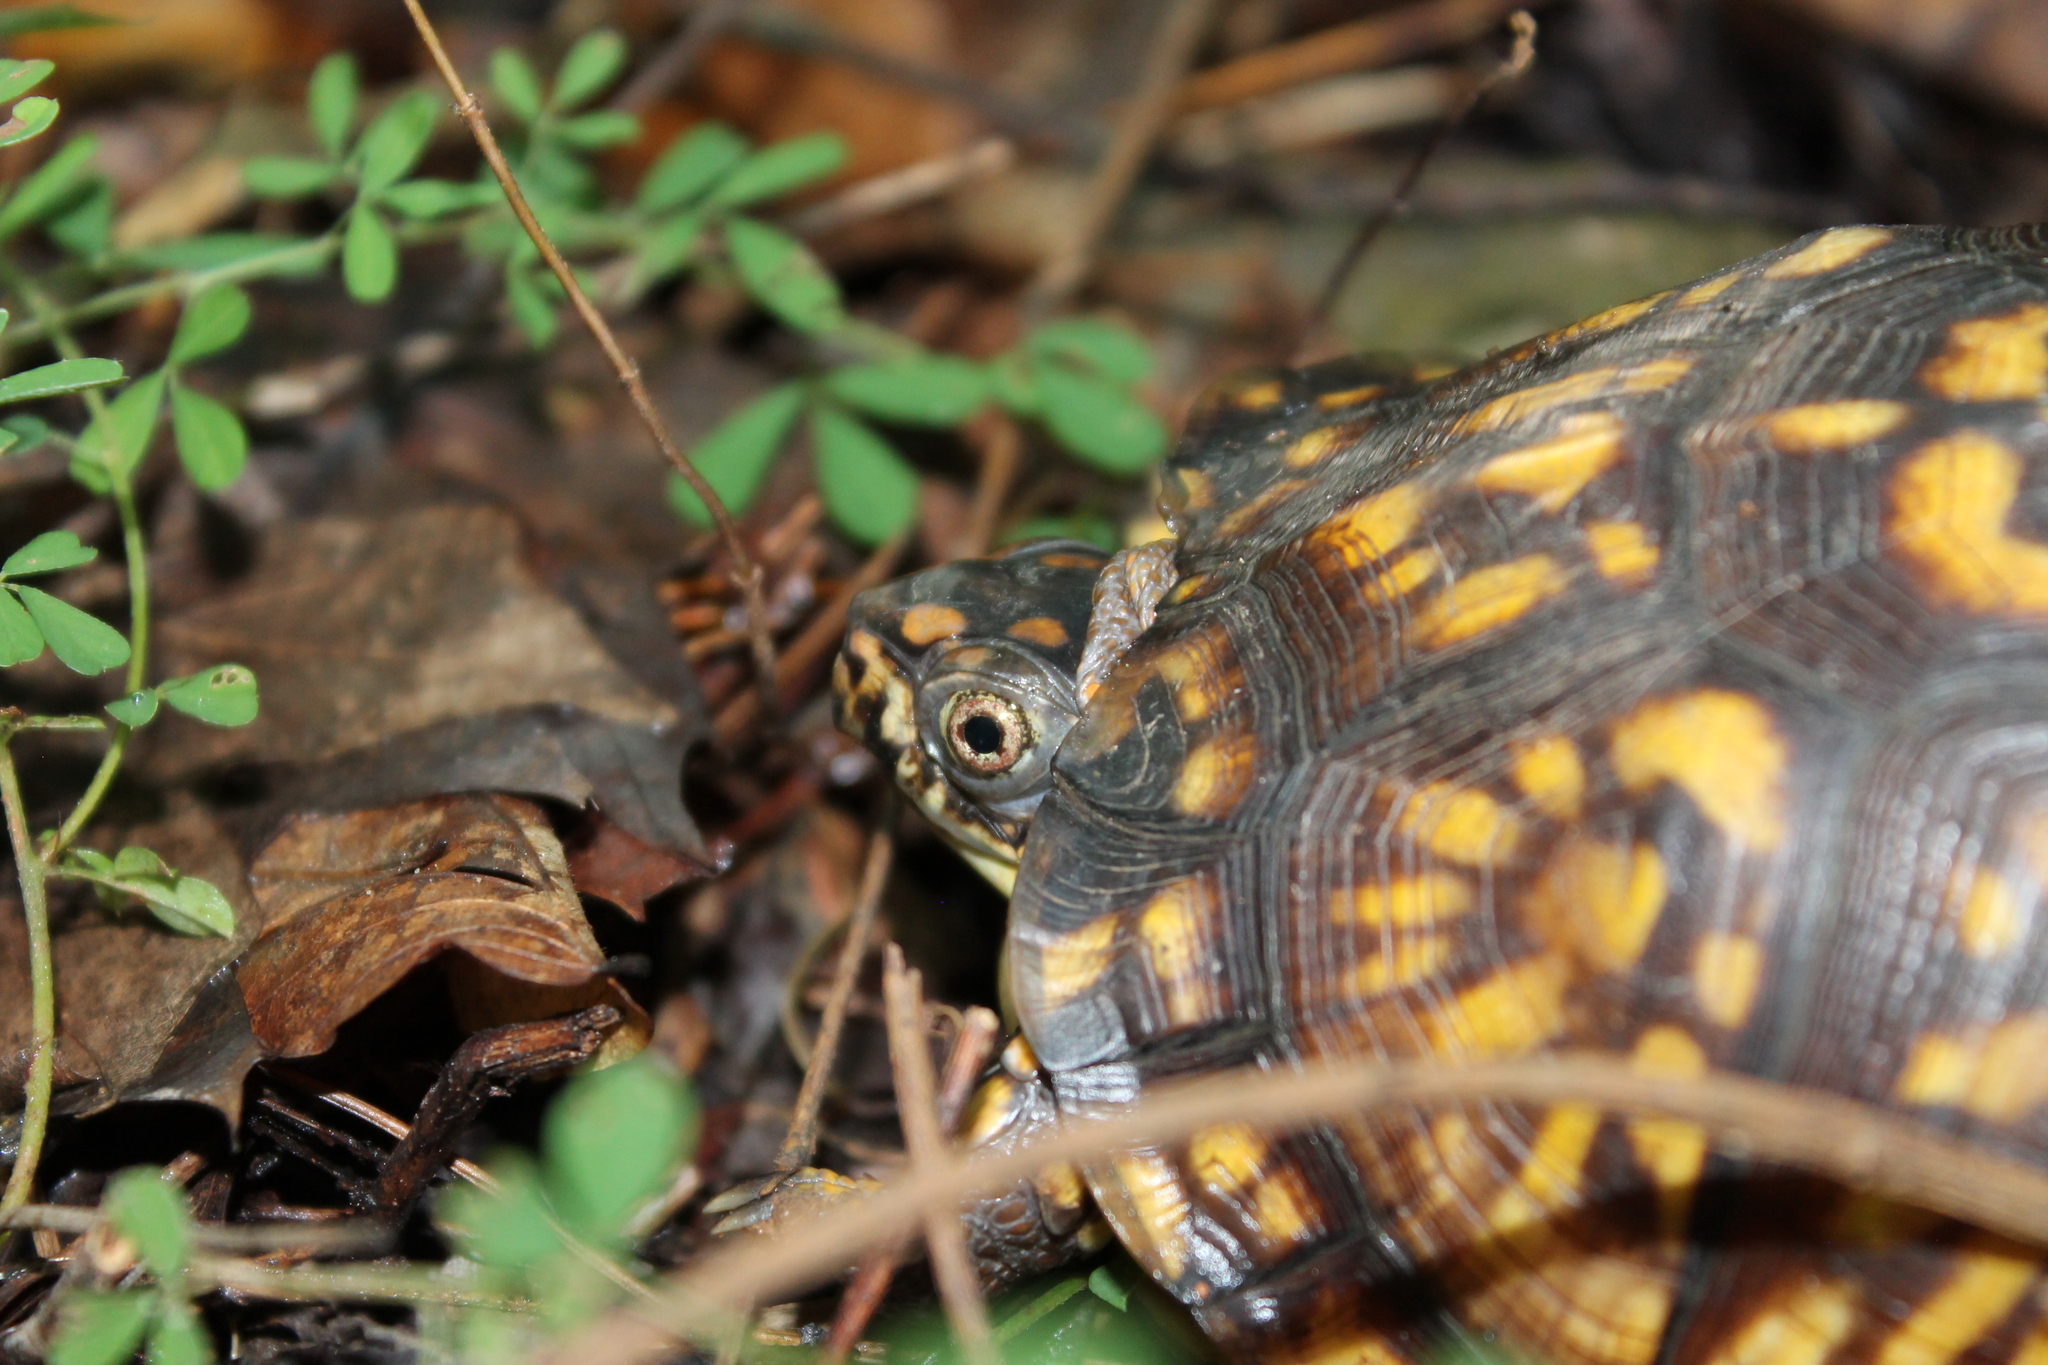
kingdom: Animalia
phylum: Chordata
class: Testudines
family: Emydidae
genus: Terrapene
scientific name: Terrapene carolina
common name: Common box turtle
